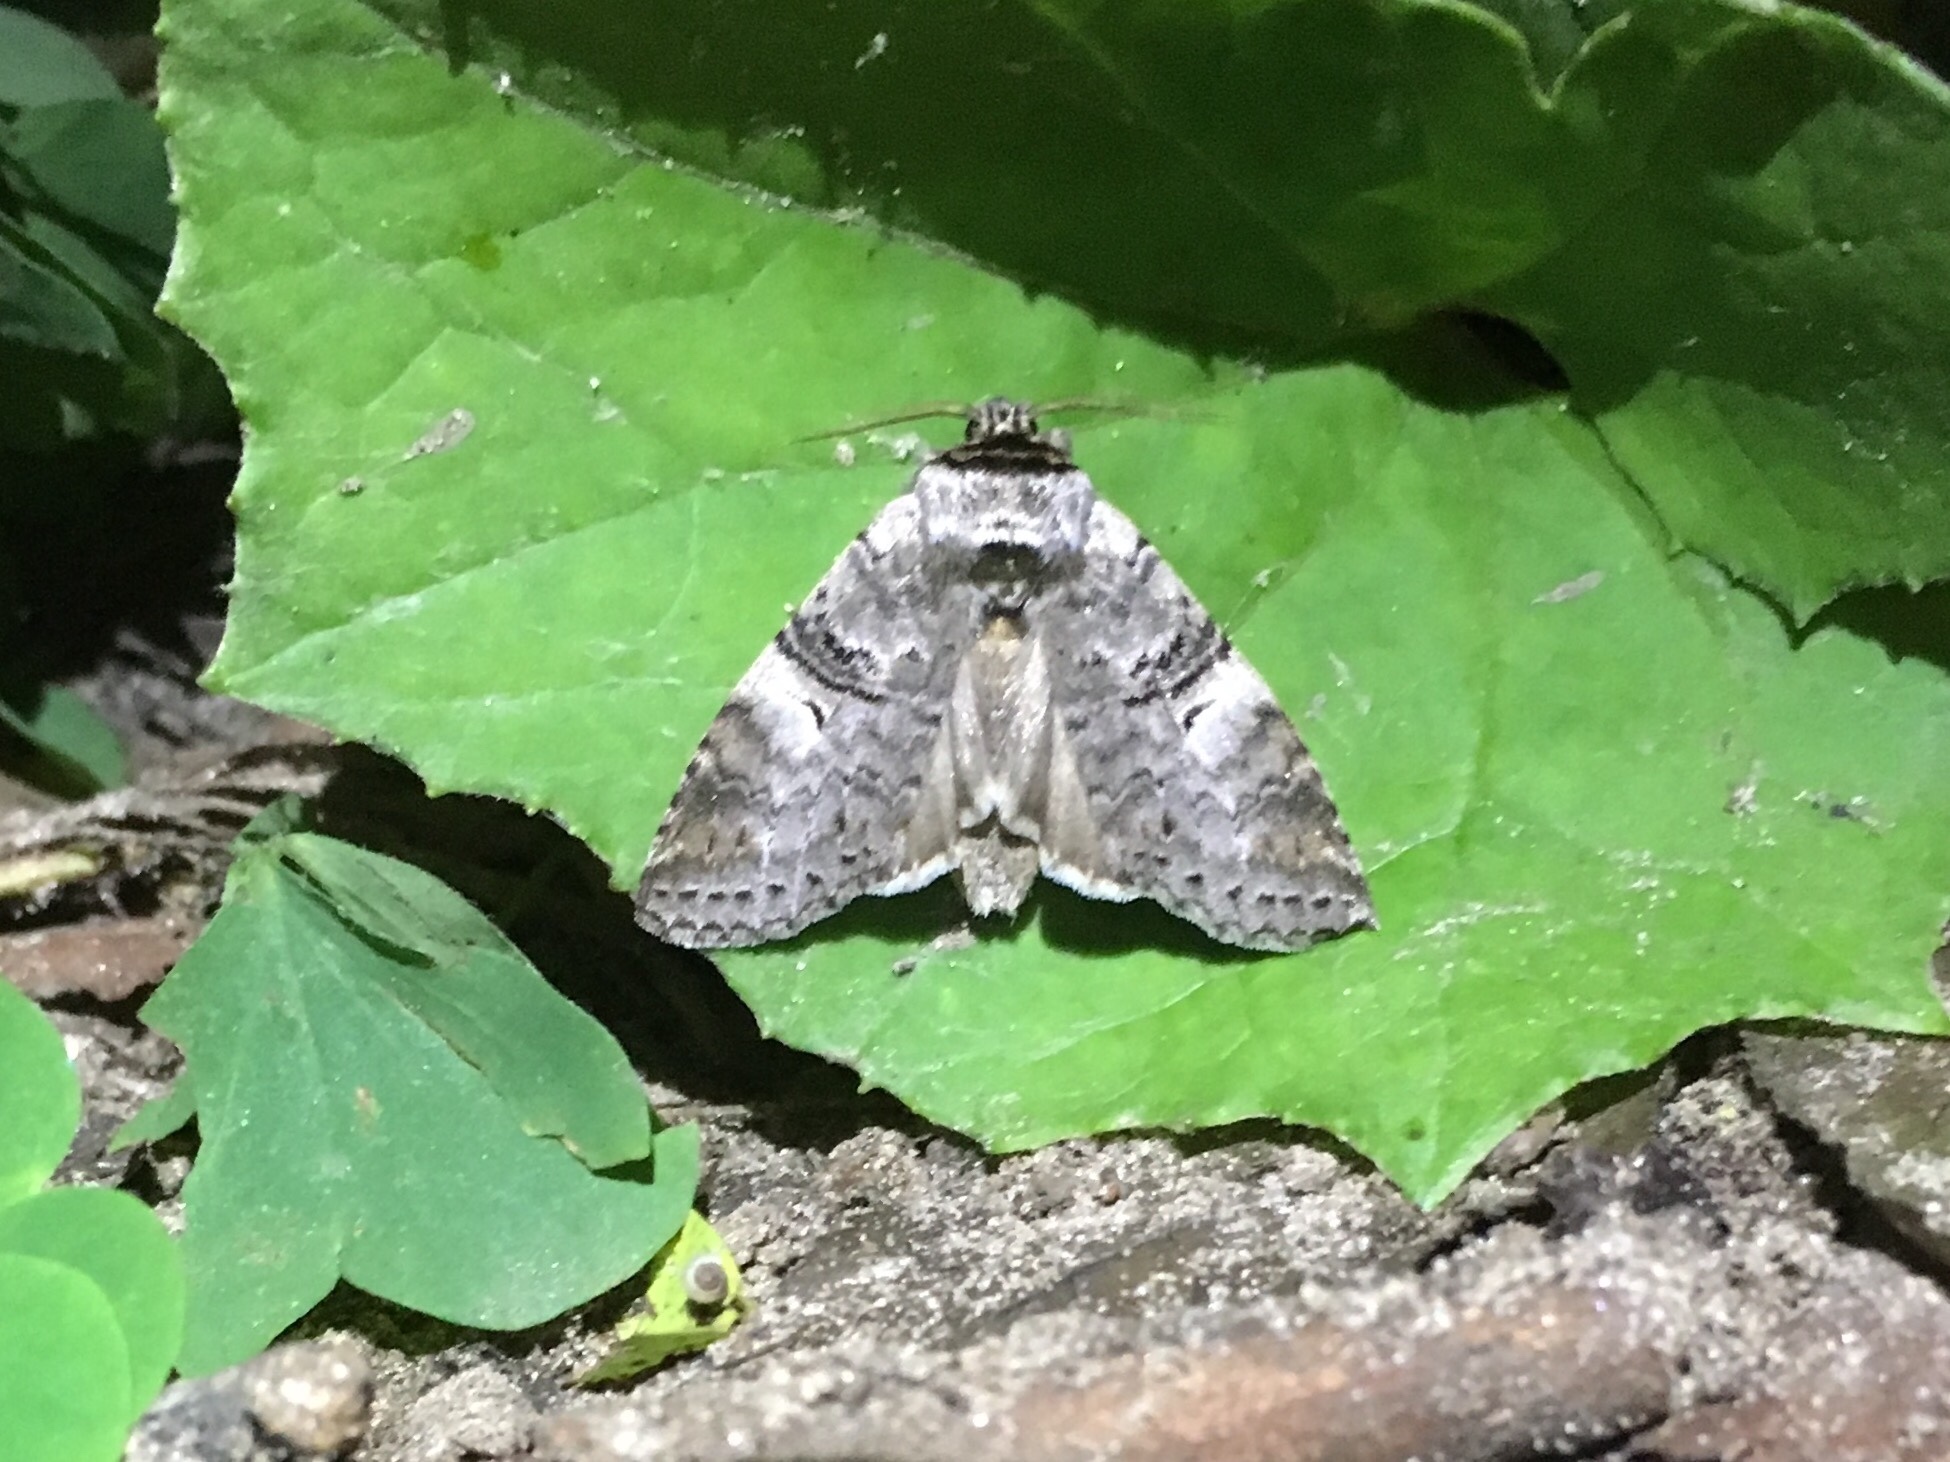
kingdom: Animalia
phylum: Arthropoda
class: Insecta
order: Lepidoptera
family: Notodontidae
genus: Ellida
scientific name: Ellida caniplaga
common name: Linden prominent
